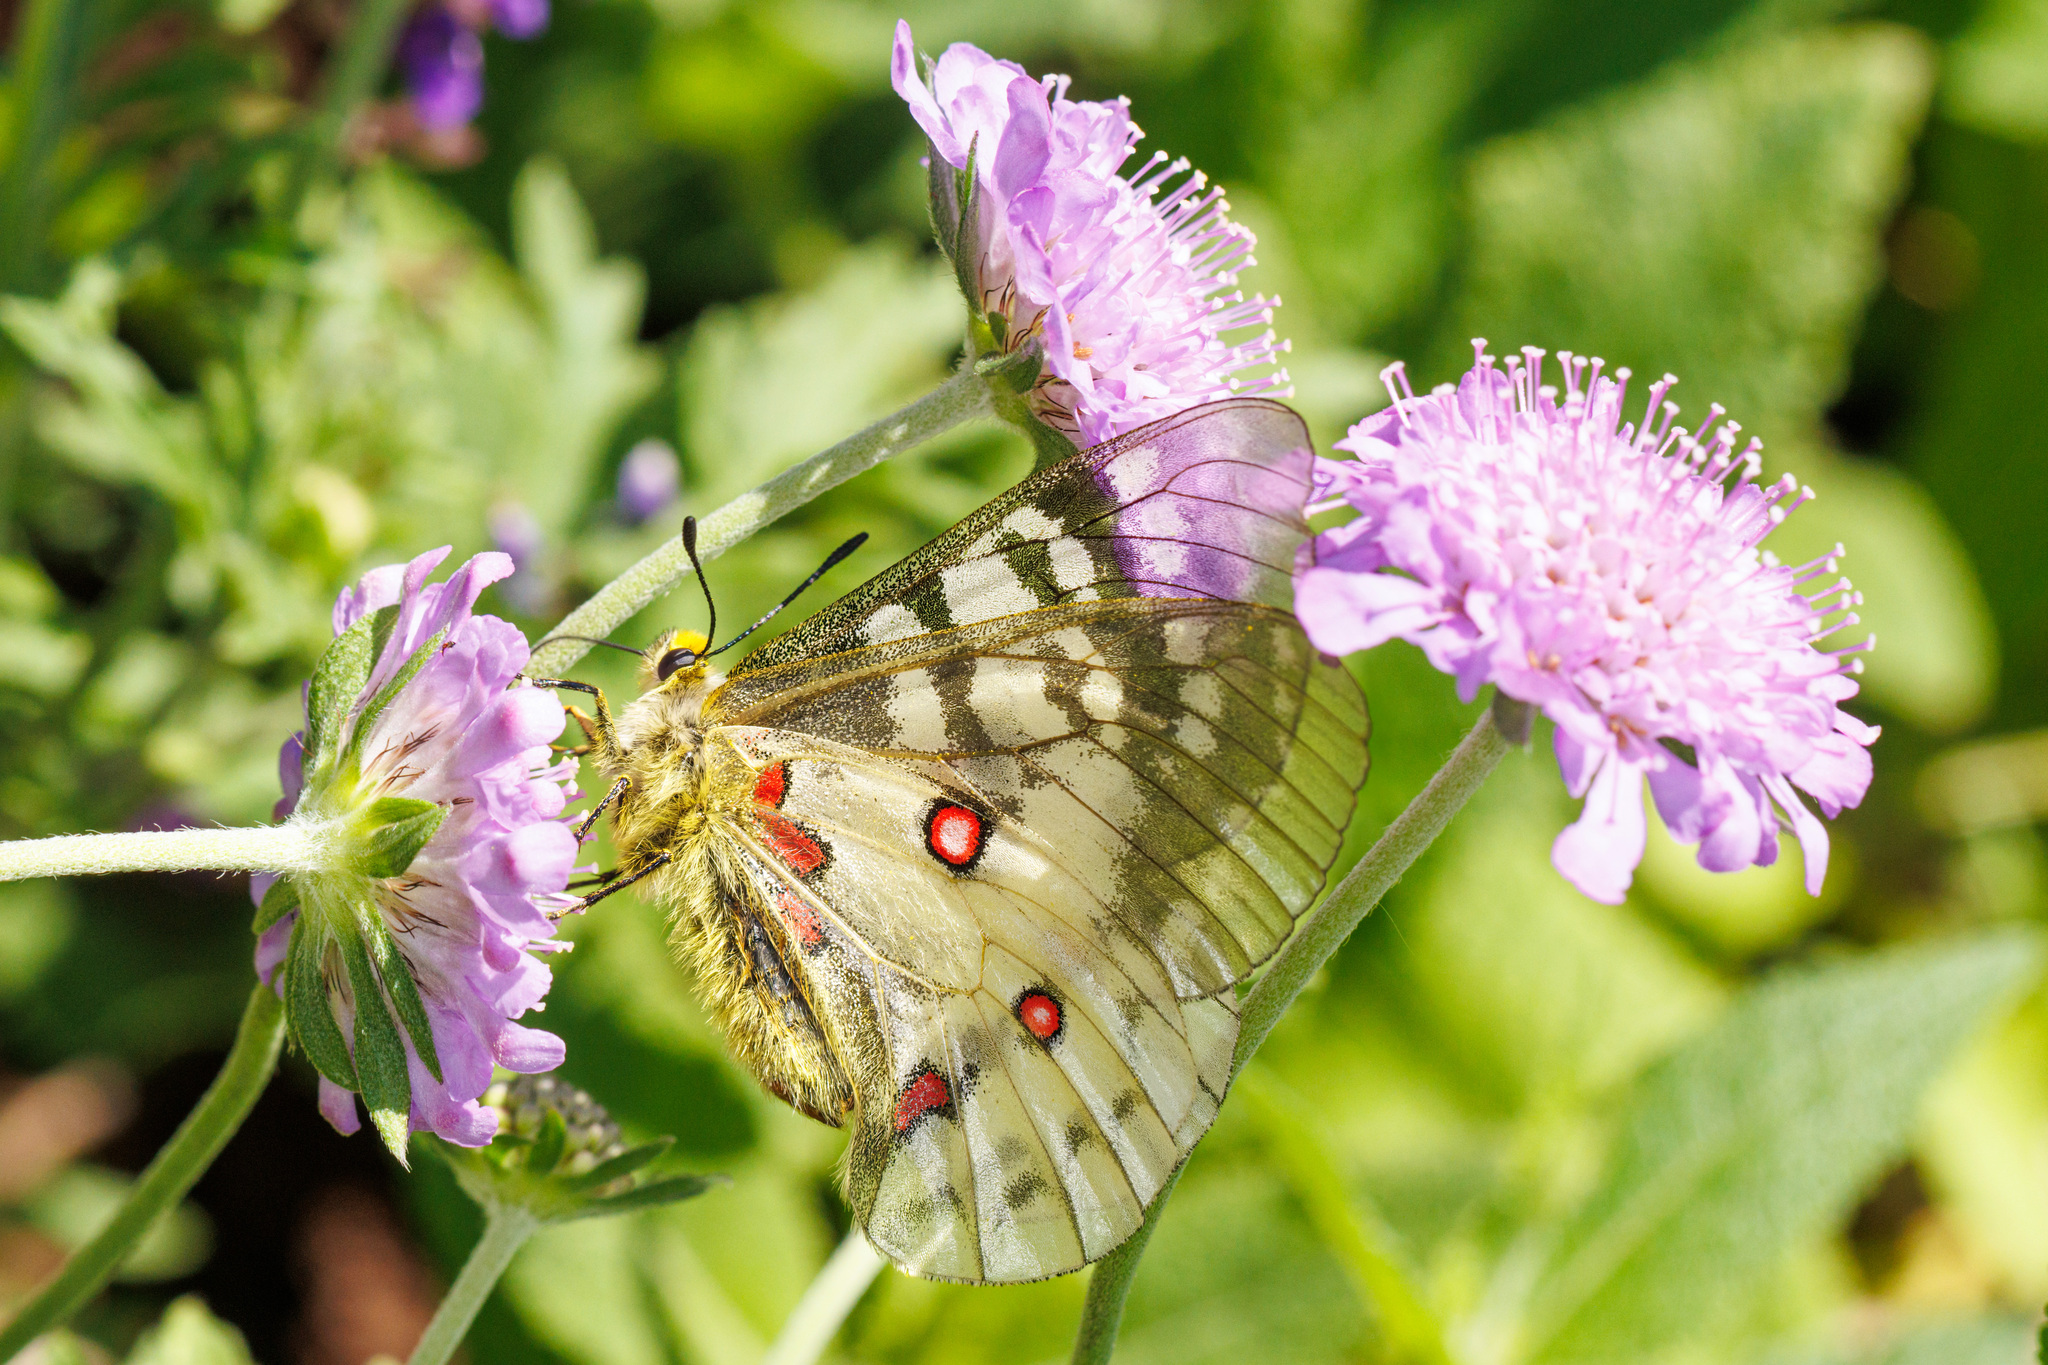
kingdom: Animalia
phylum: Arthropoda
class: Insecta
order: Lepidoptera
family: Papilionidae
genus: Parnassius
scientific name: Parnassius clodius
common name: American apollo
